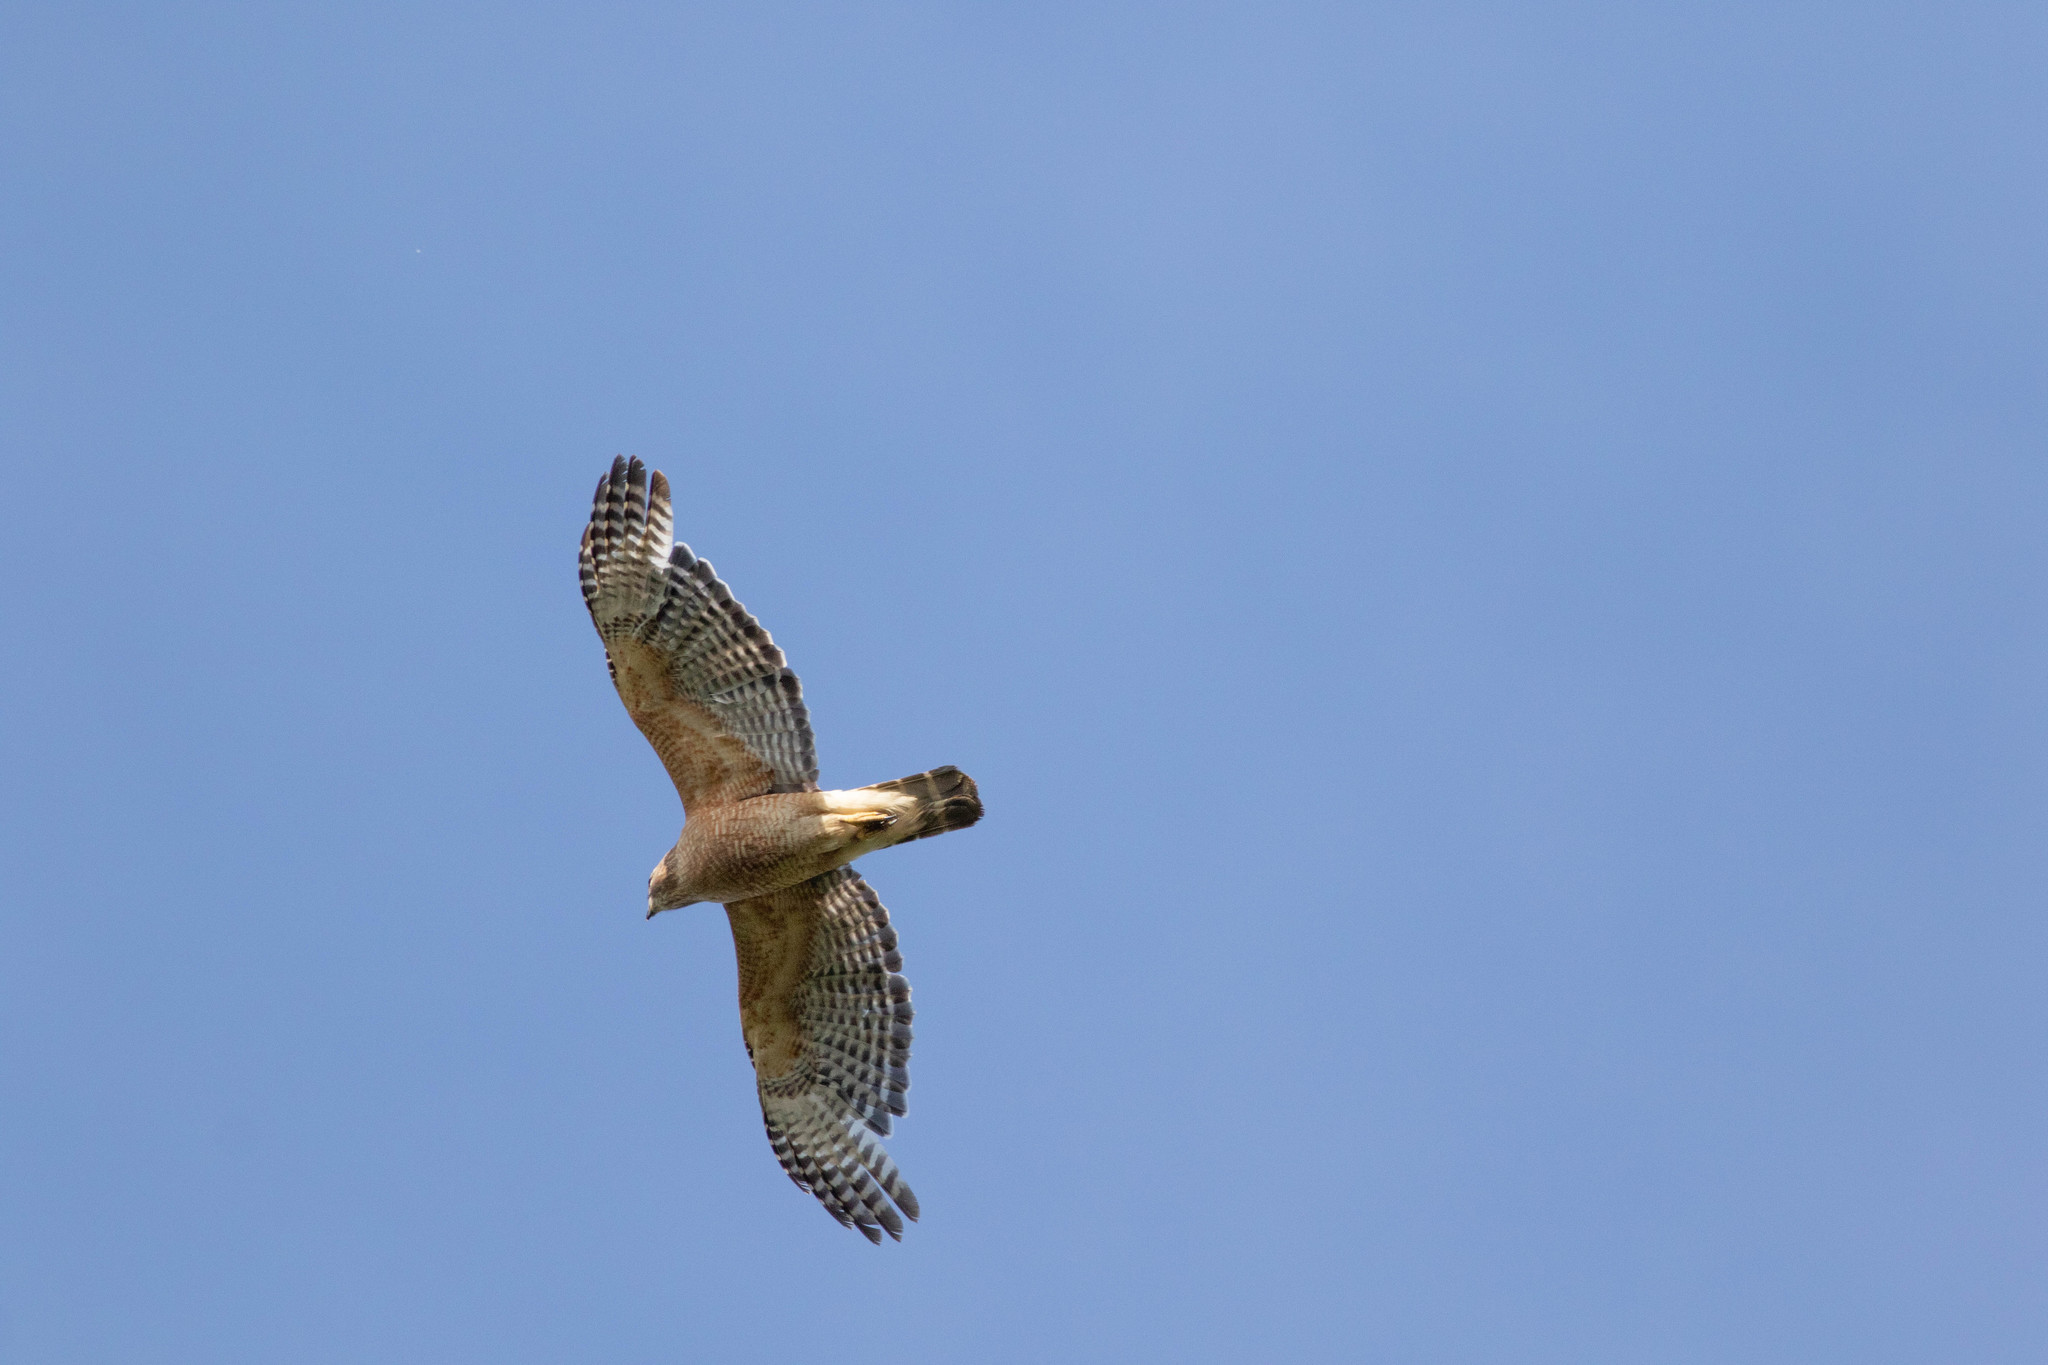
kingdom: Animalia
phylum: Chordata
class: Aves
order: Accipitriformes
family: Accipitridae
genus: Buteo
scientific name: Buteo lineatus
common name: Red-shouldered hawk
